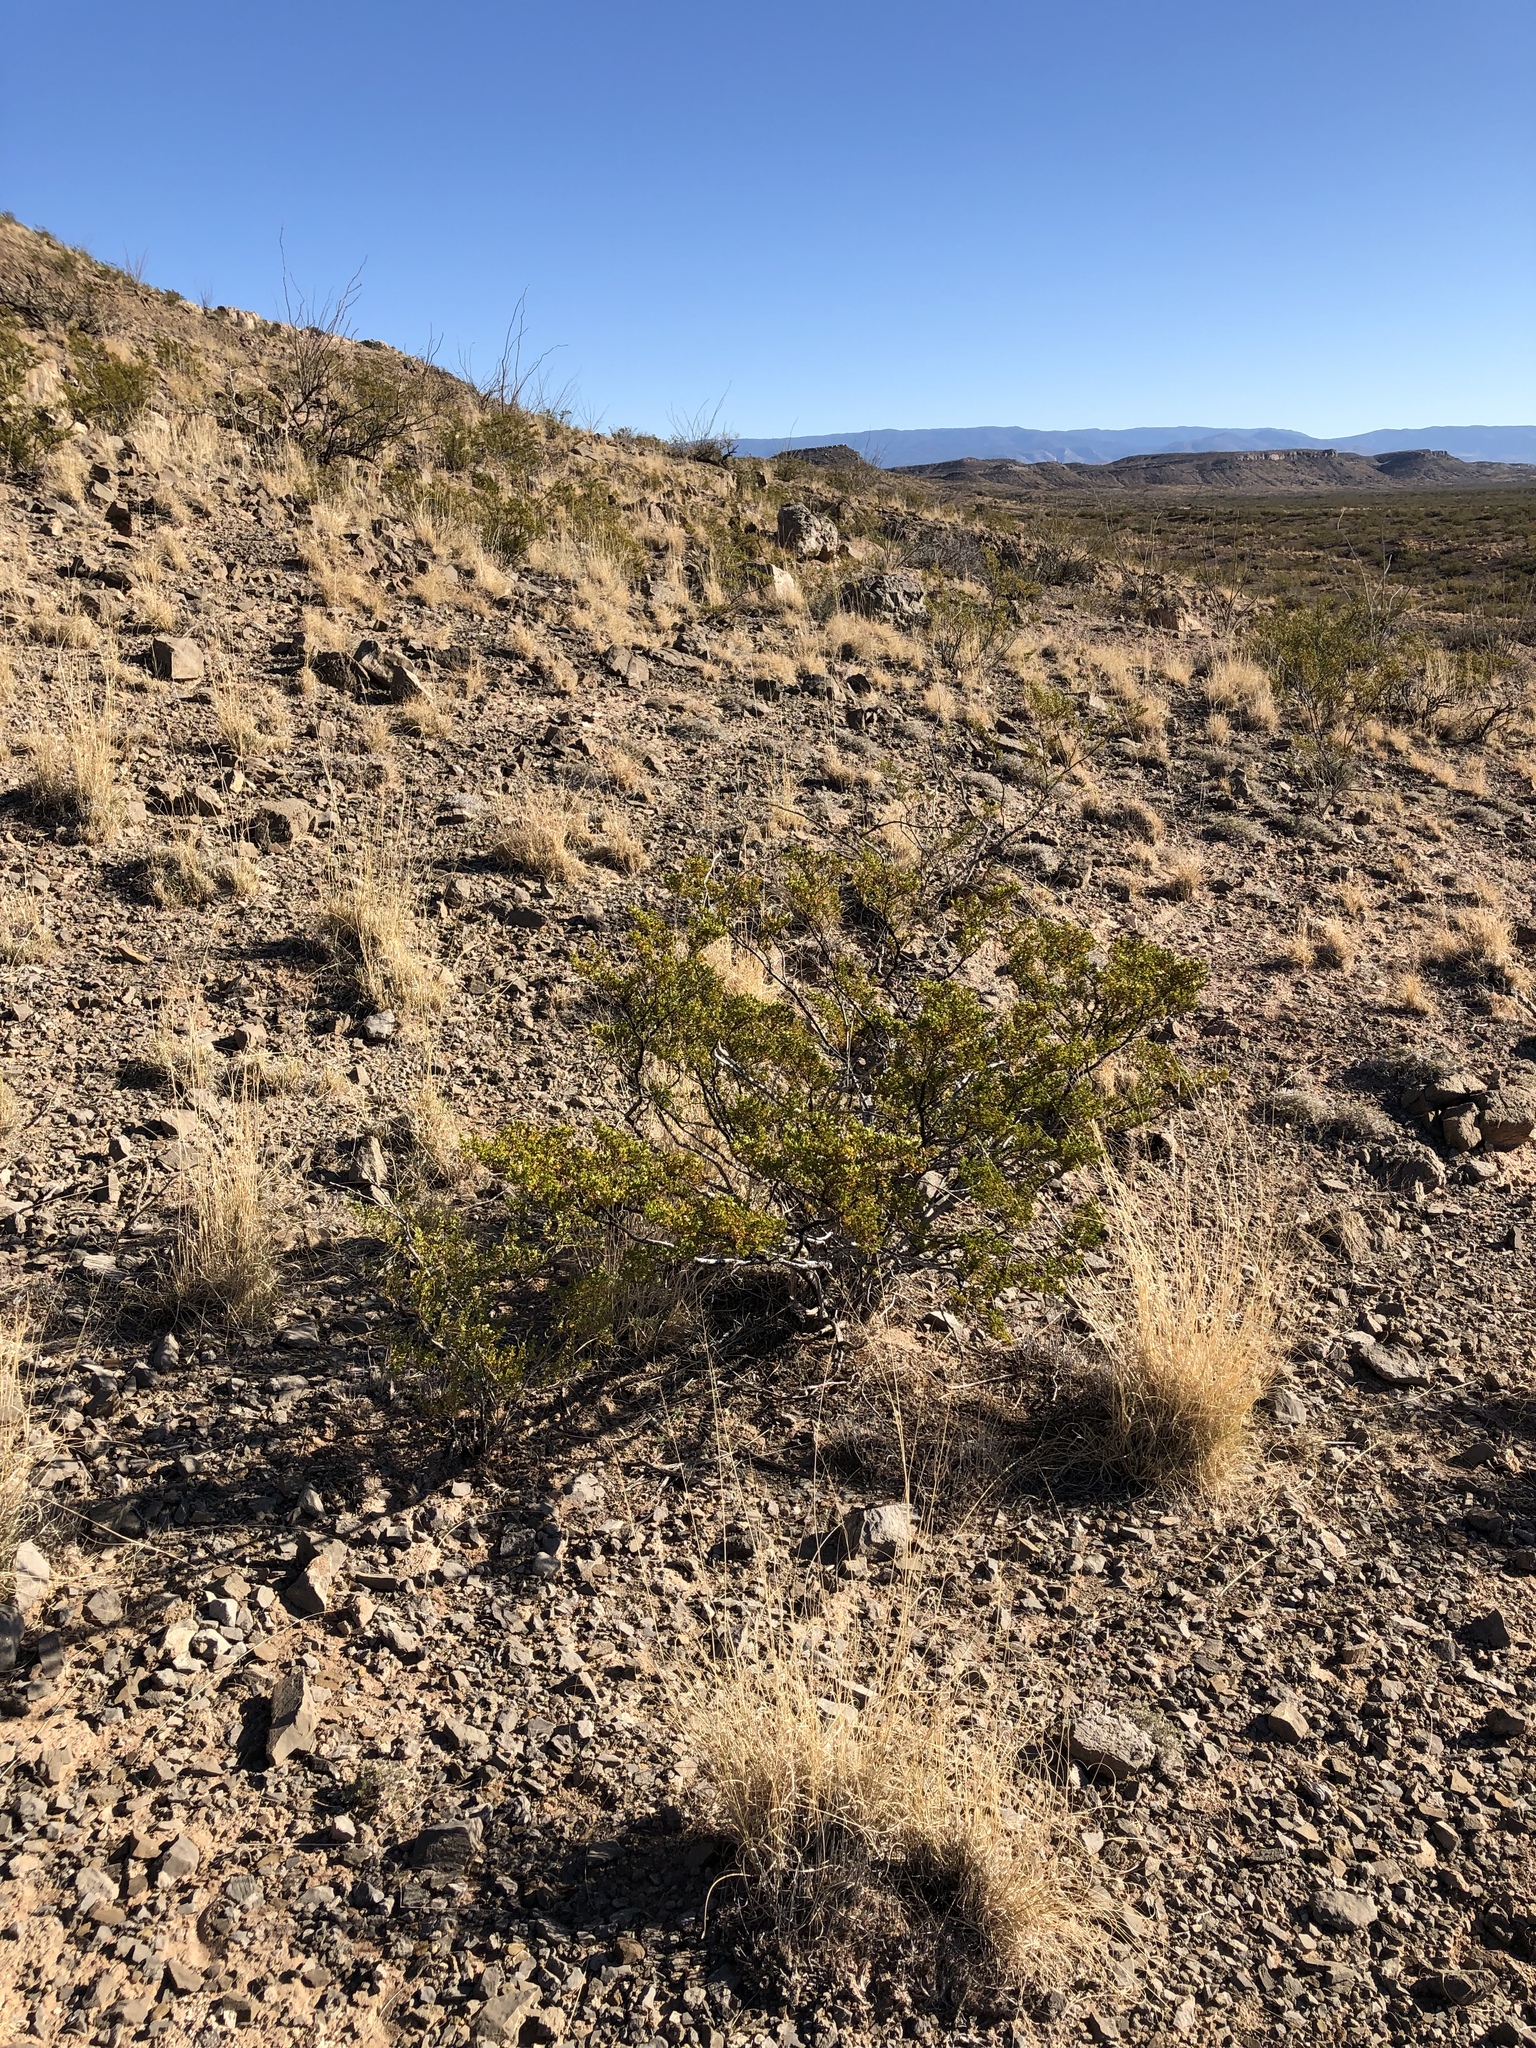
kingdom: Plantae
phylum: Tracheophyta
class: Magnoliopsida
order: Zygophyllales
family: Zygophyllaceae
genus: Larrea
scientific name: Larrea tridentata
